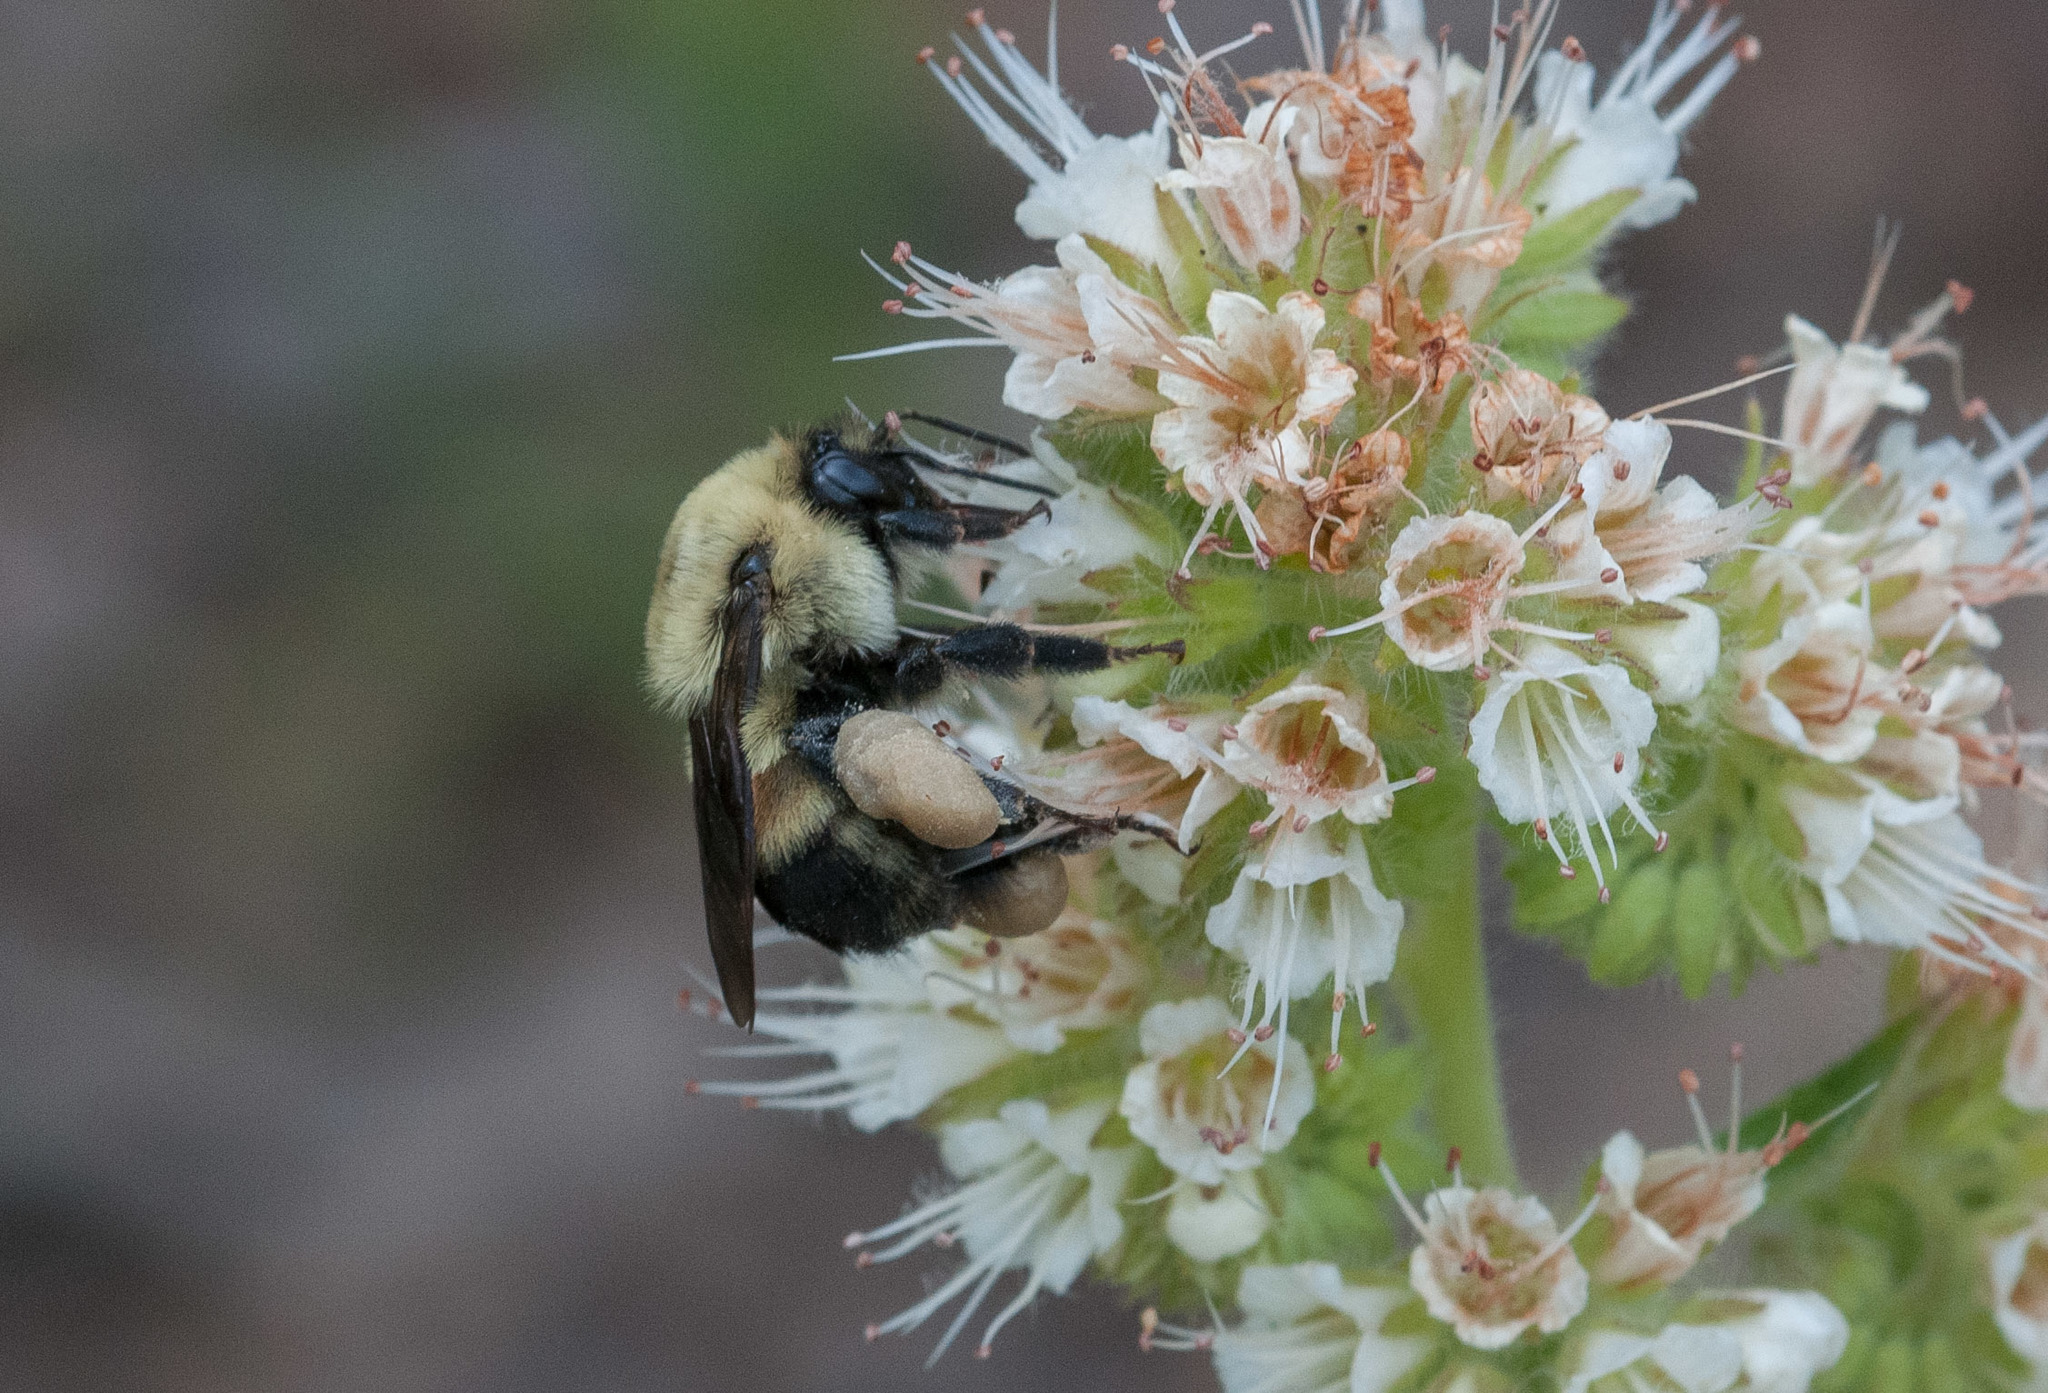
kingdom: Animalia
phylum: Arthropoda
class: Insecta
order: Hymenoptera
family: Apidae
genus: Bombus
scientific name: Bombus griseocollis
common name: Brown-belted bumble bee
